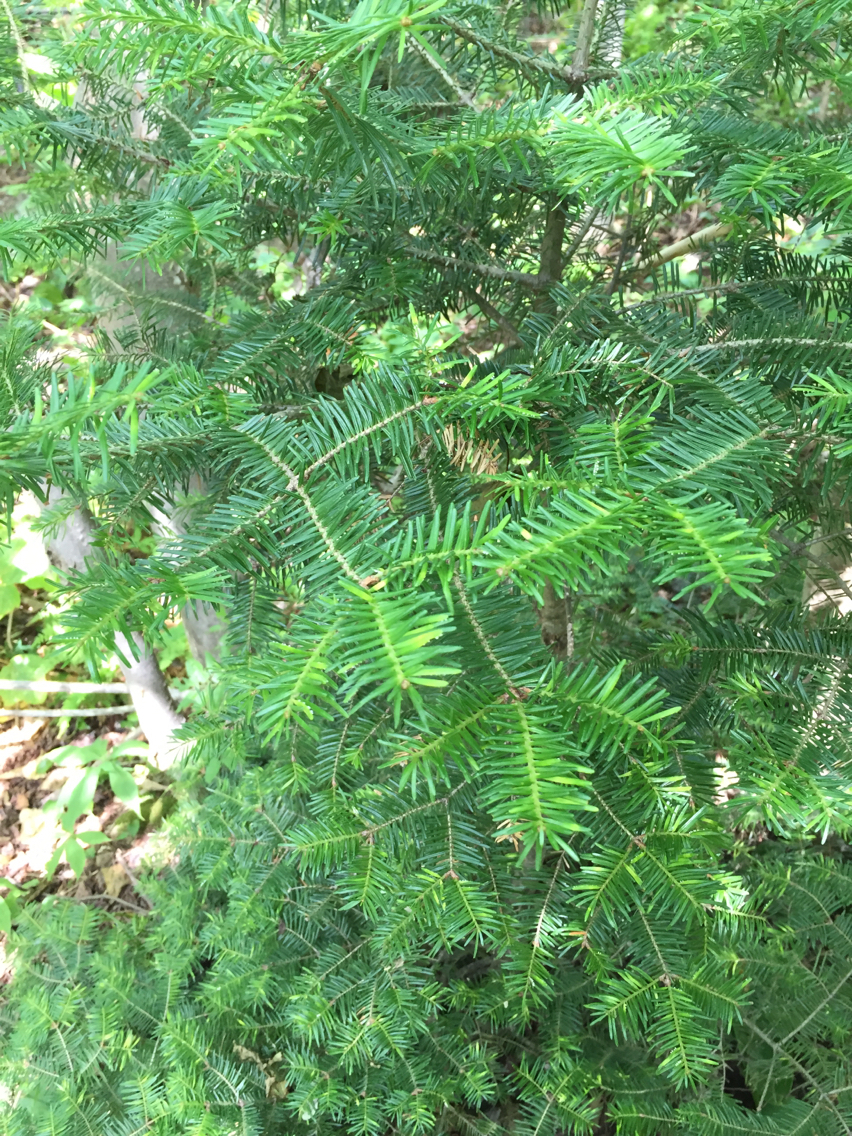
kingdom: Plantae
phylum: Tracheophyta
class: Pinopsida
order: Pinales
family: Pinaceae
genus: Abies
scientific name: Abies balsamea
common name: Balsam fir
